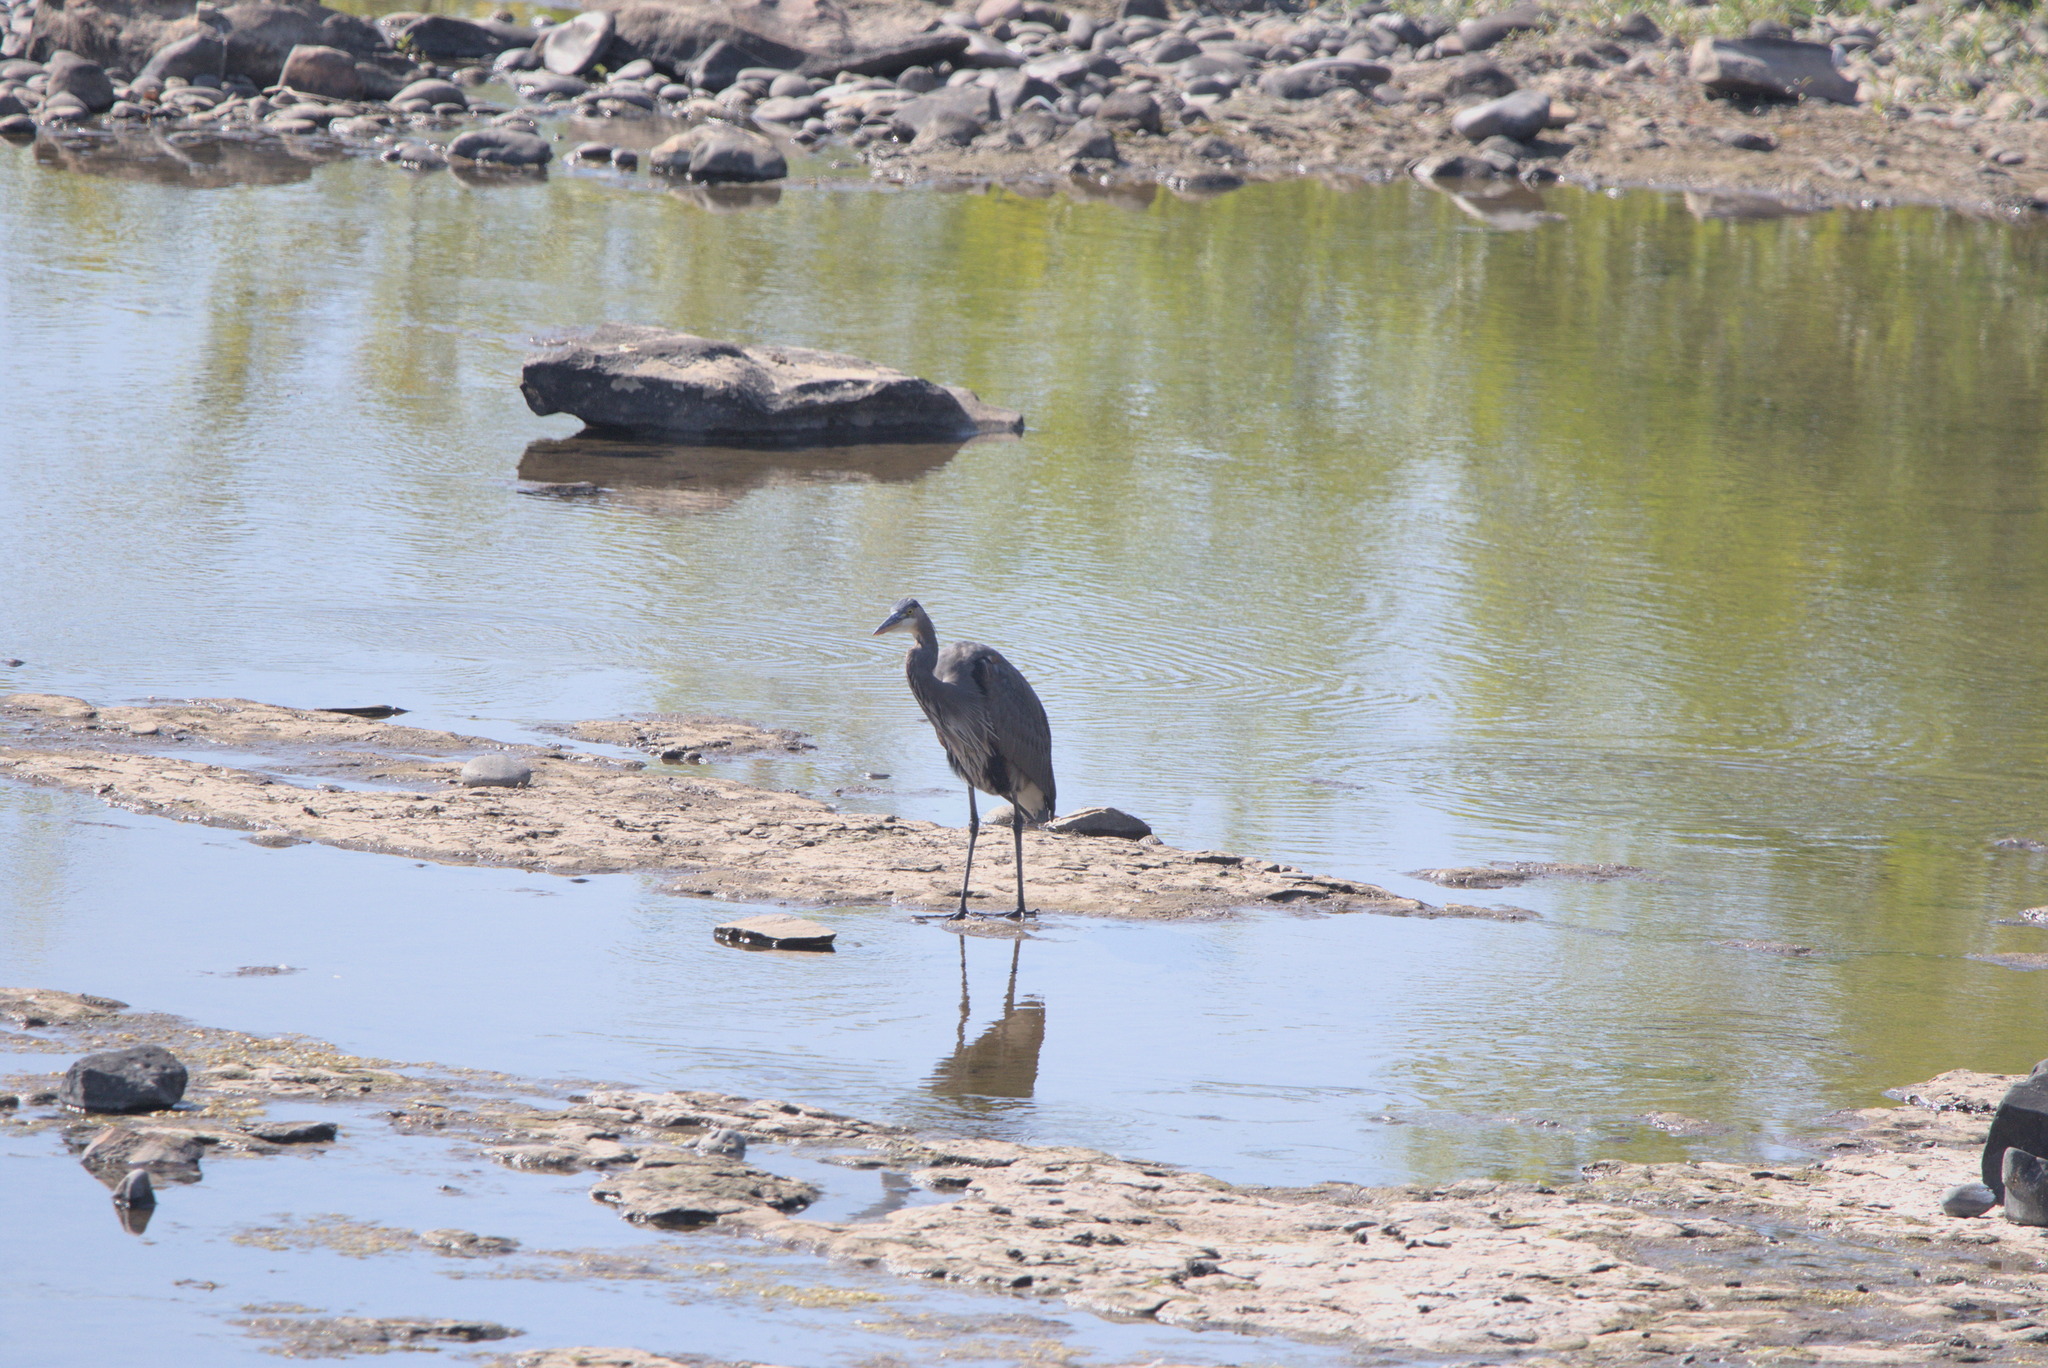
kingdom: Animalia
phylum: Chordata
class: Aves
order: Pelecaniformes
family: Ardeidae
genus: Ardea
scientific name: Ardea herodias
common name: Great blue heron
